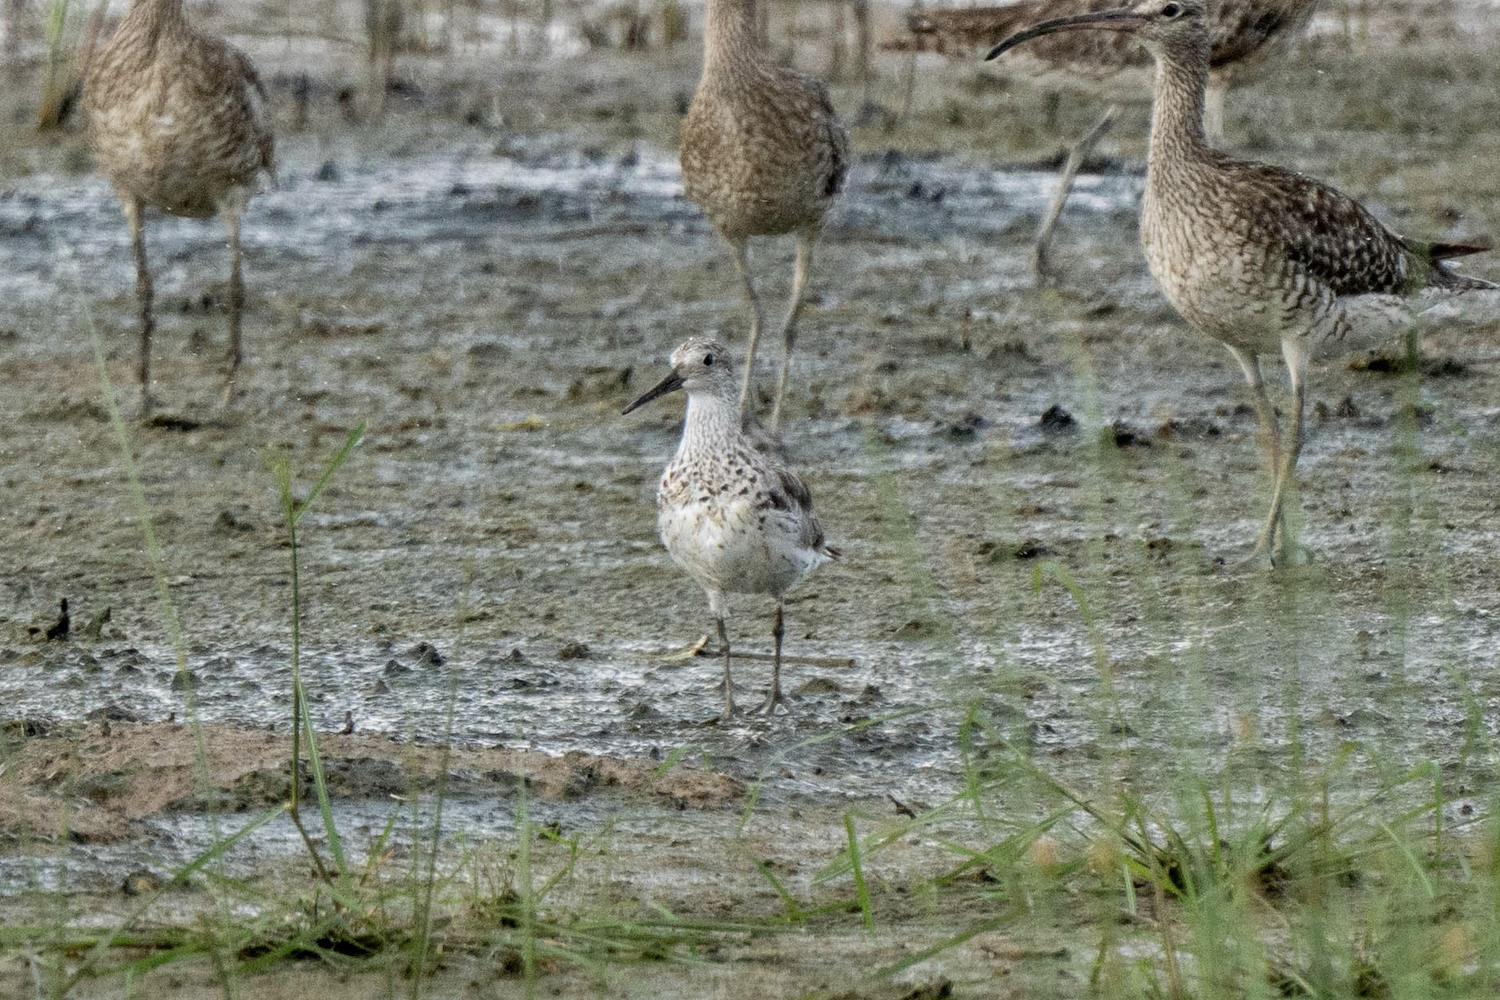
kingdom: Animalia
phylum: Chordata
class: Aves
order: Charadriiformes
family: Scolopacidae
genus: Calidris
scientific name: Calidris tenuirostris
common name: Great knot
